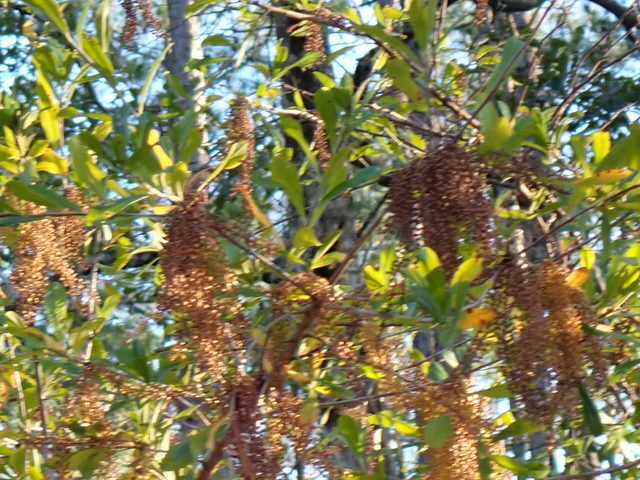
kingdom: Plantae
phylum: Tracheophyta
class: Magnoliopsida
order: Ericales
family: Cyrillaceae
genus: Cyrilla
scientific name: Cyrilla racemiflora
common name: Black titi
